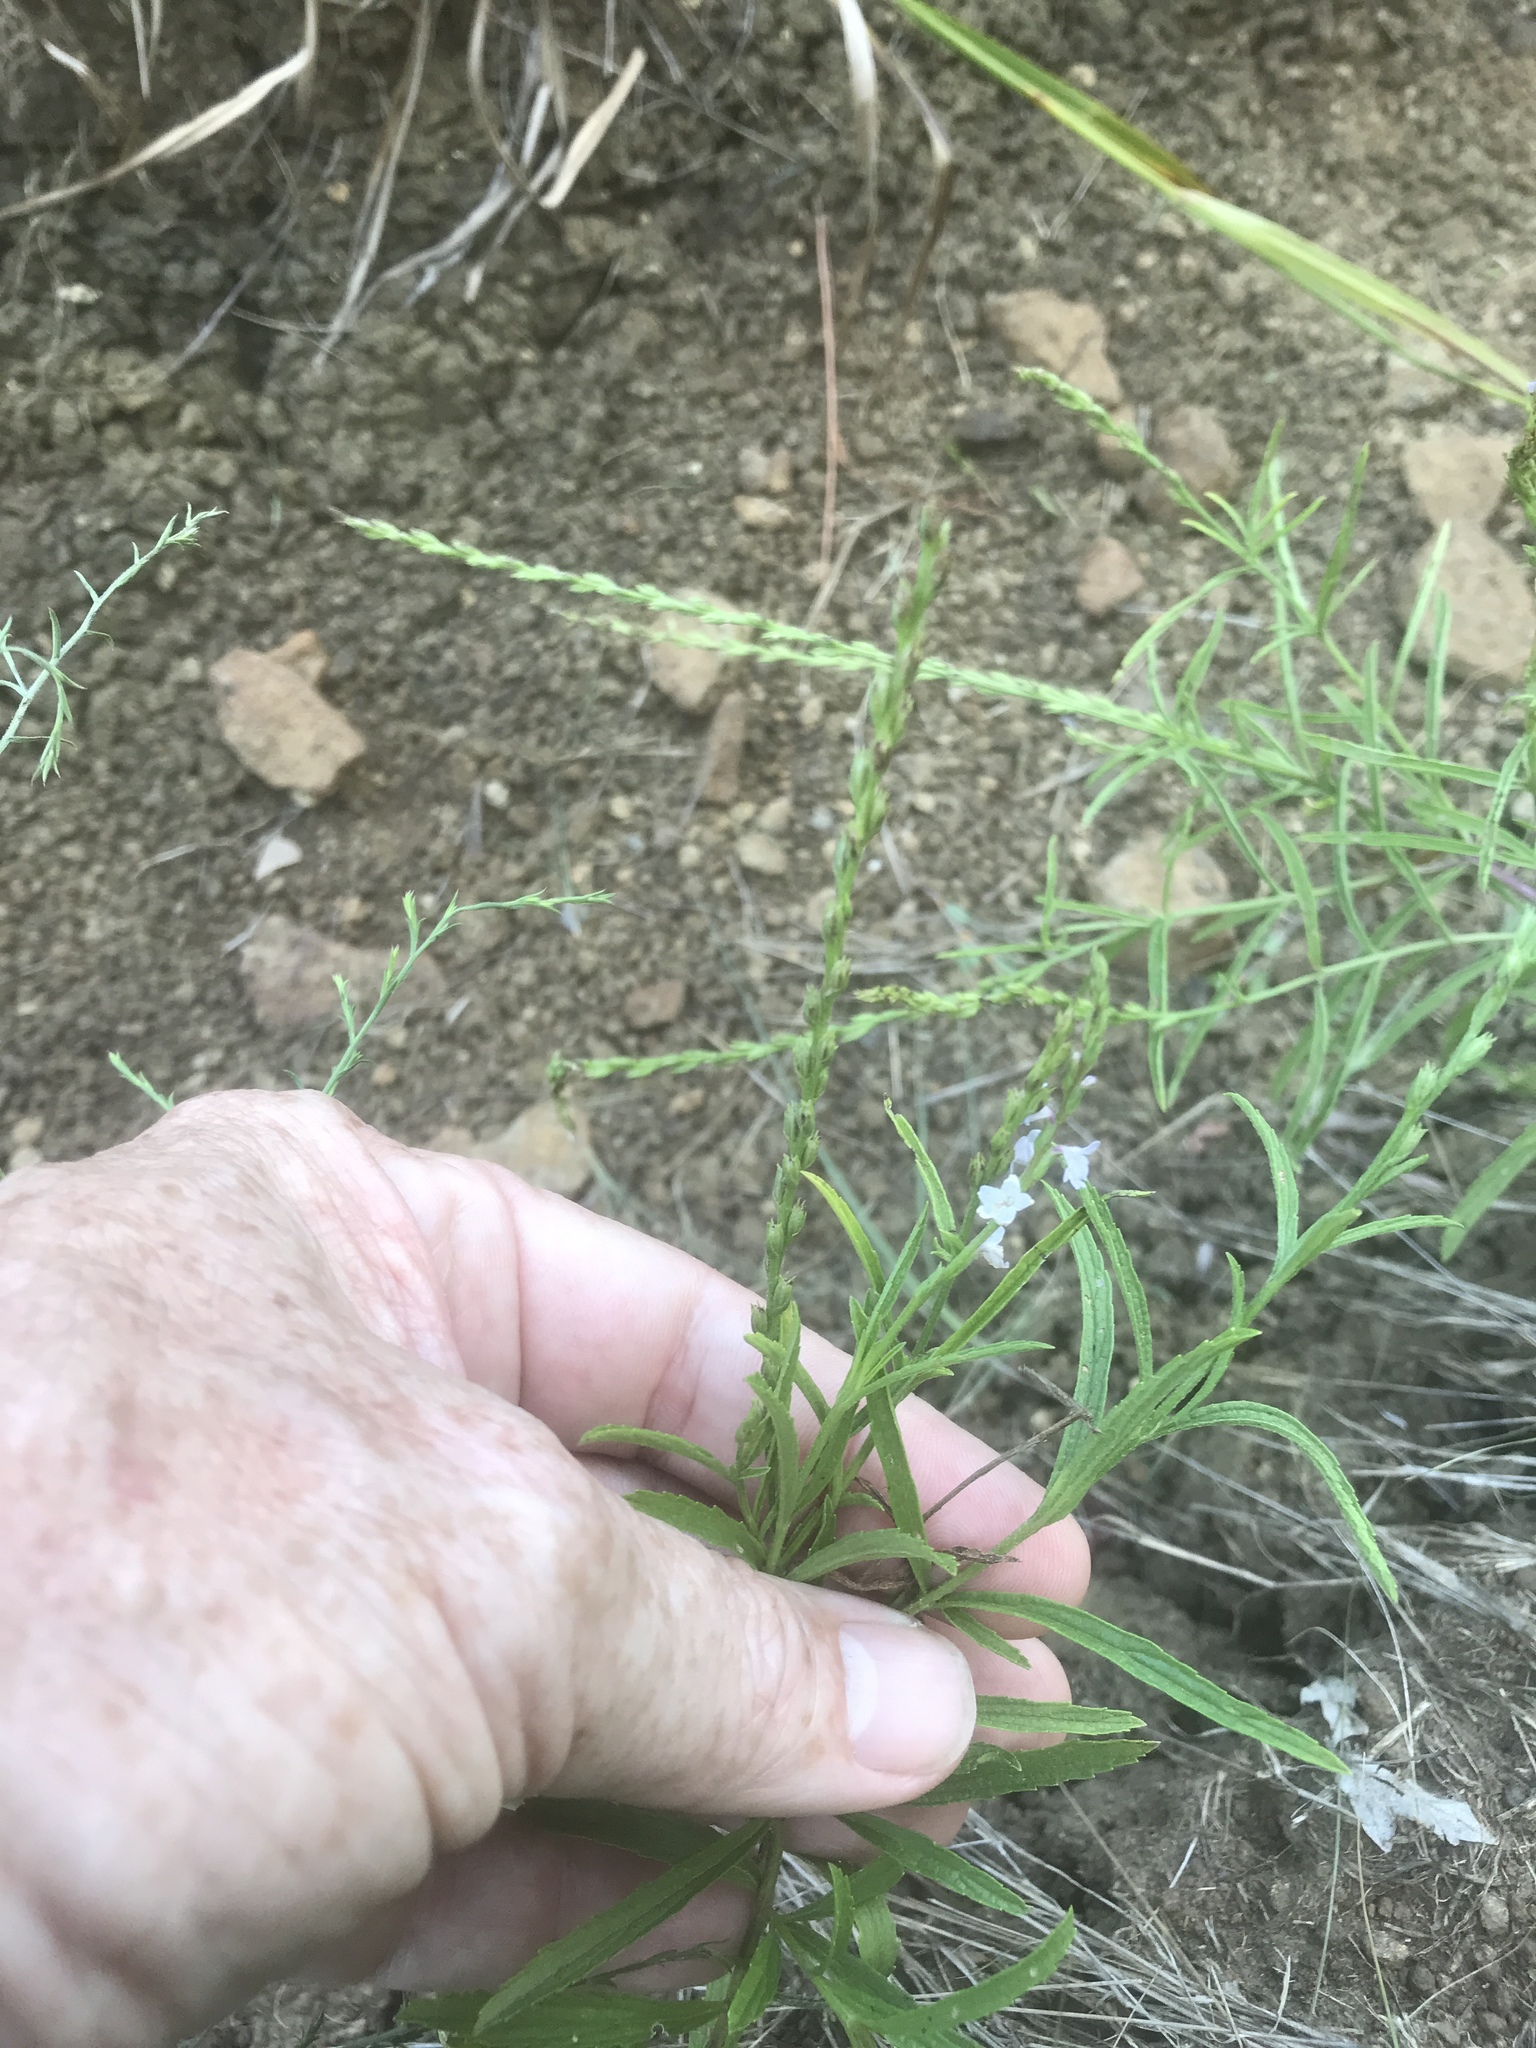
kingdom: Plantae
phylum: Tracheophyta
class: Magnoliopsida
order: Lamiales
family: Verbenaceae
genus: Verbena
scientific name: Verbena simplex
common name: Narrow-leaf vervain
